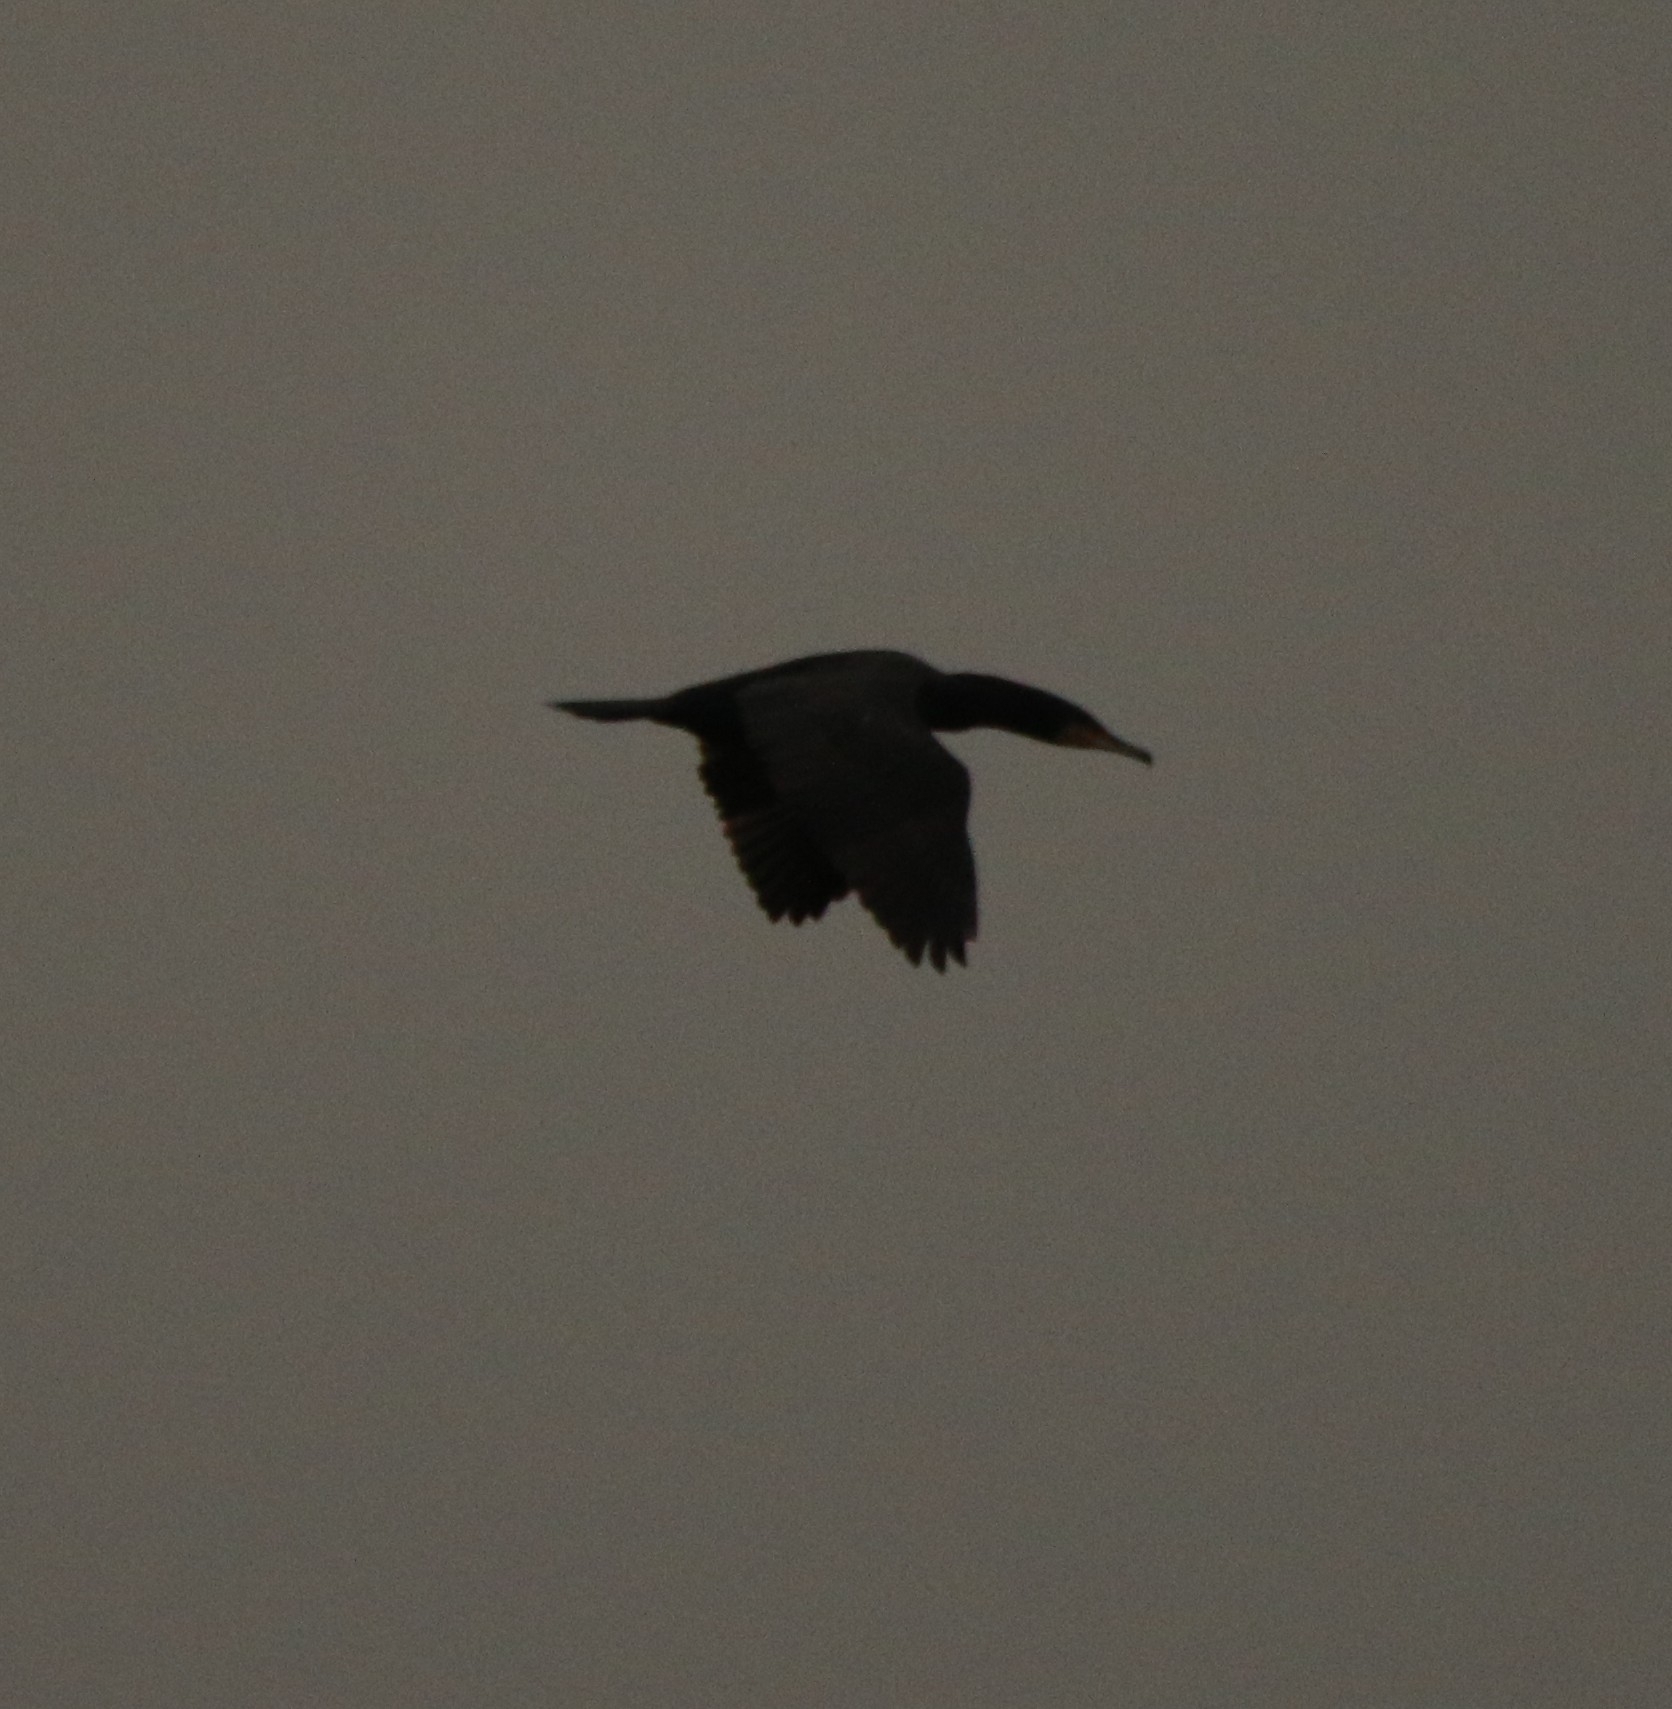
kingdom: Animalia
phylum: Chordata
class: Aves
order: Suliformes
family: Phalacrocoracidae
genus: Phalacrocorax
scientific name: Phalacrocorax carbo
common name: Great cormorant
